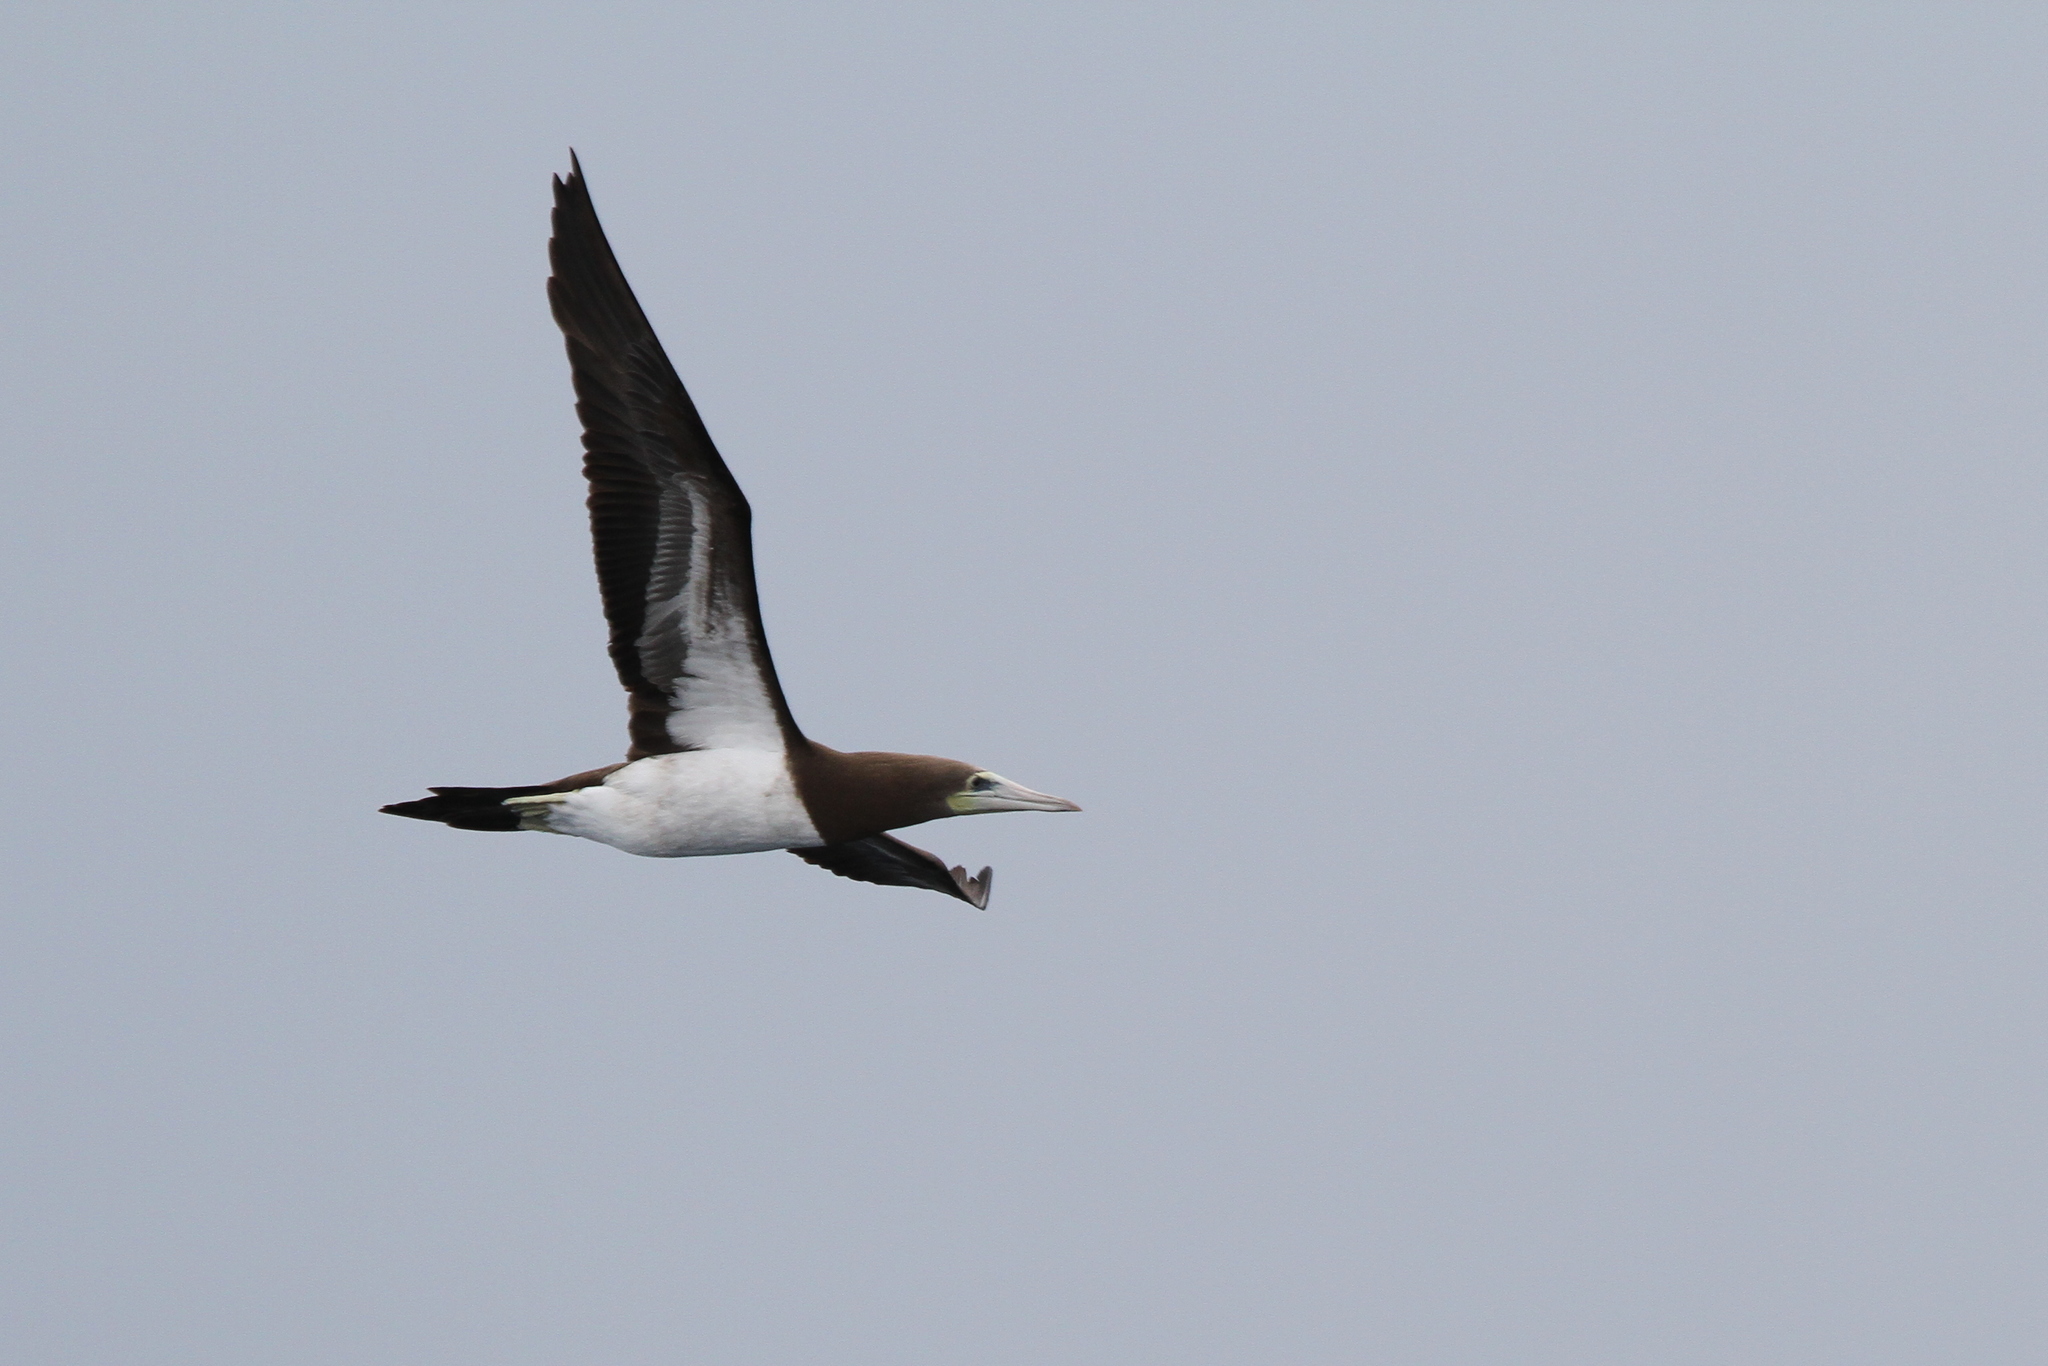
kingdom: Animalia
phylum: Chordata
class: Aves
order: Suliformes
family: Sulidae
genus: Sula
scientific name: Sula leucogaster
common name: Brown booby
